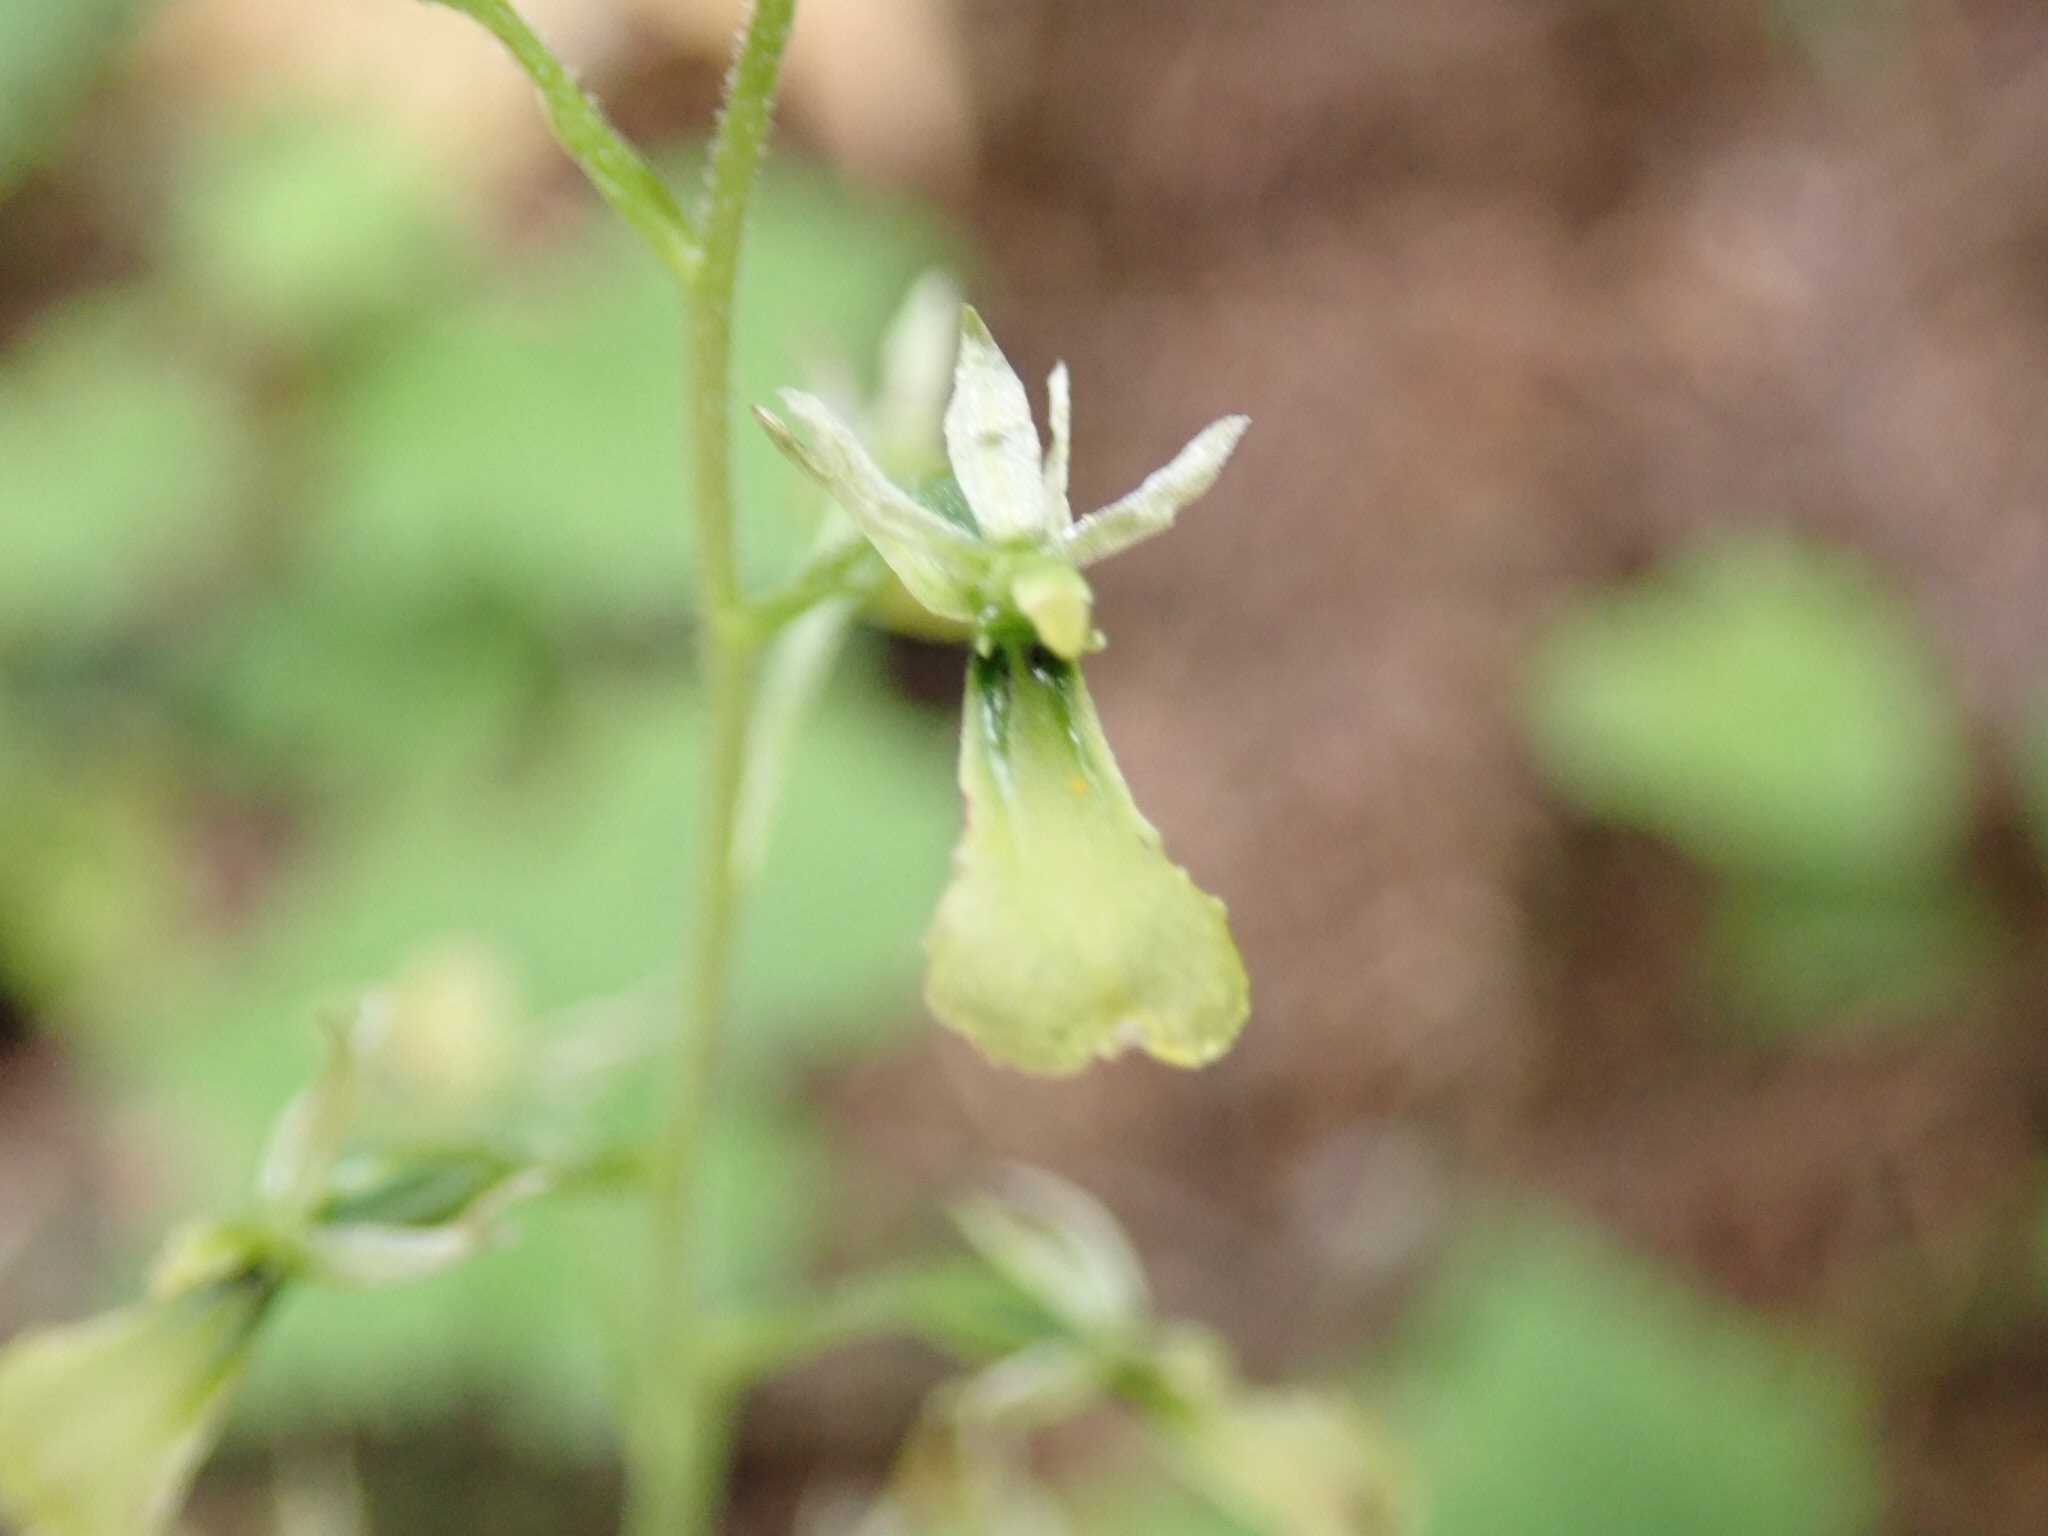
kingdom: Plantae
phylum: Tracheophyta
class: Liliopsida
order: Asparagales
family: Orchidaceae
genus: Neottia
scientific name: Neottia banksiana
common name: Northwestern twayblade
